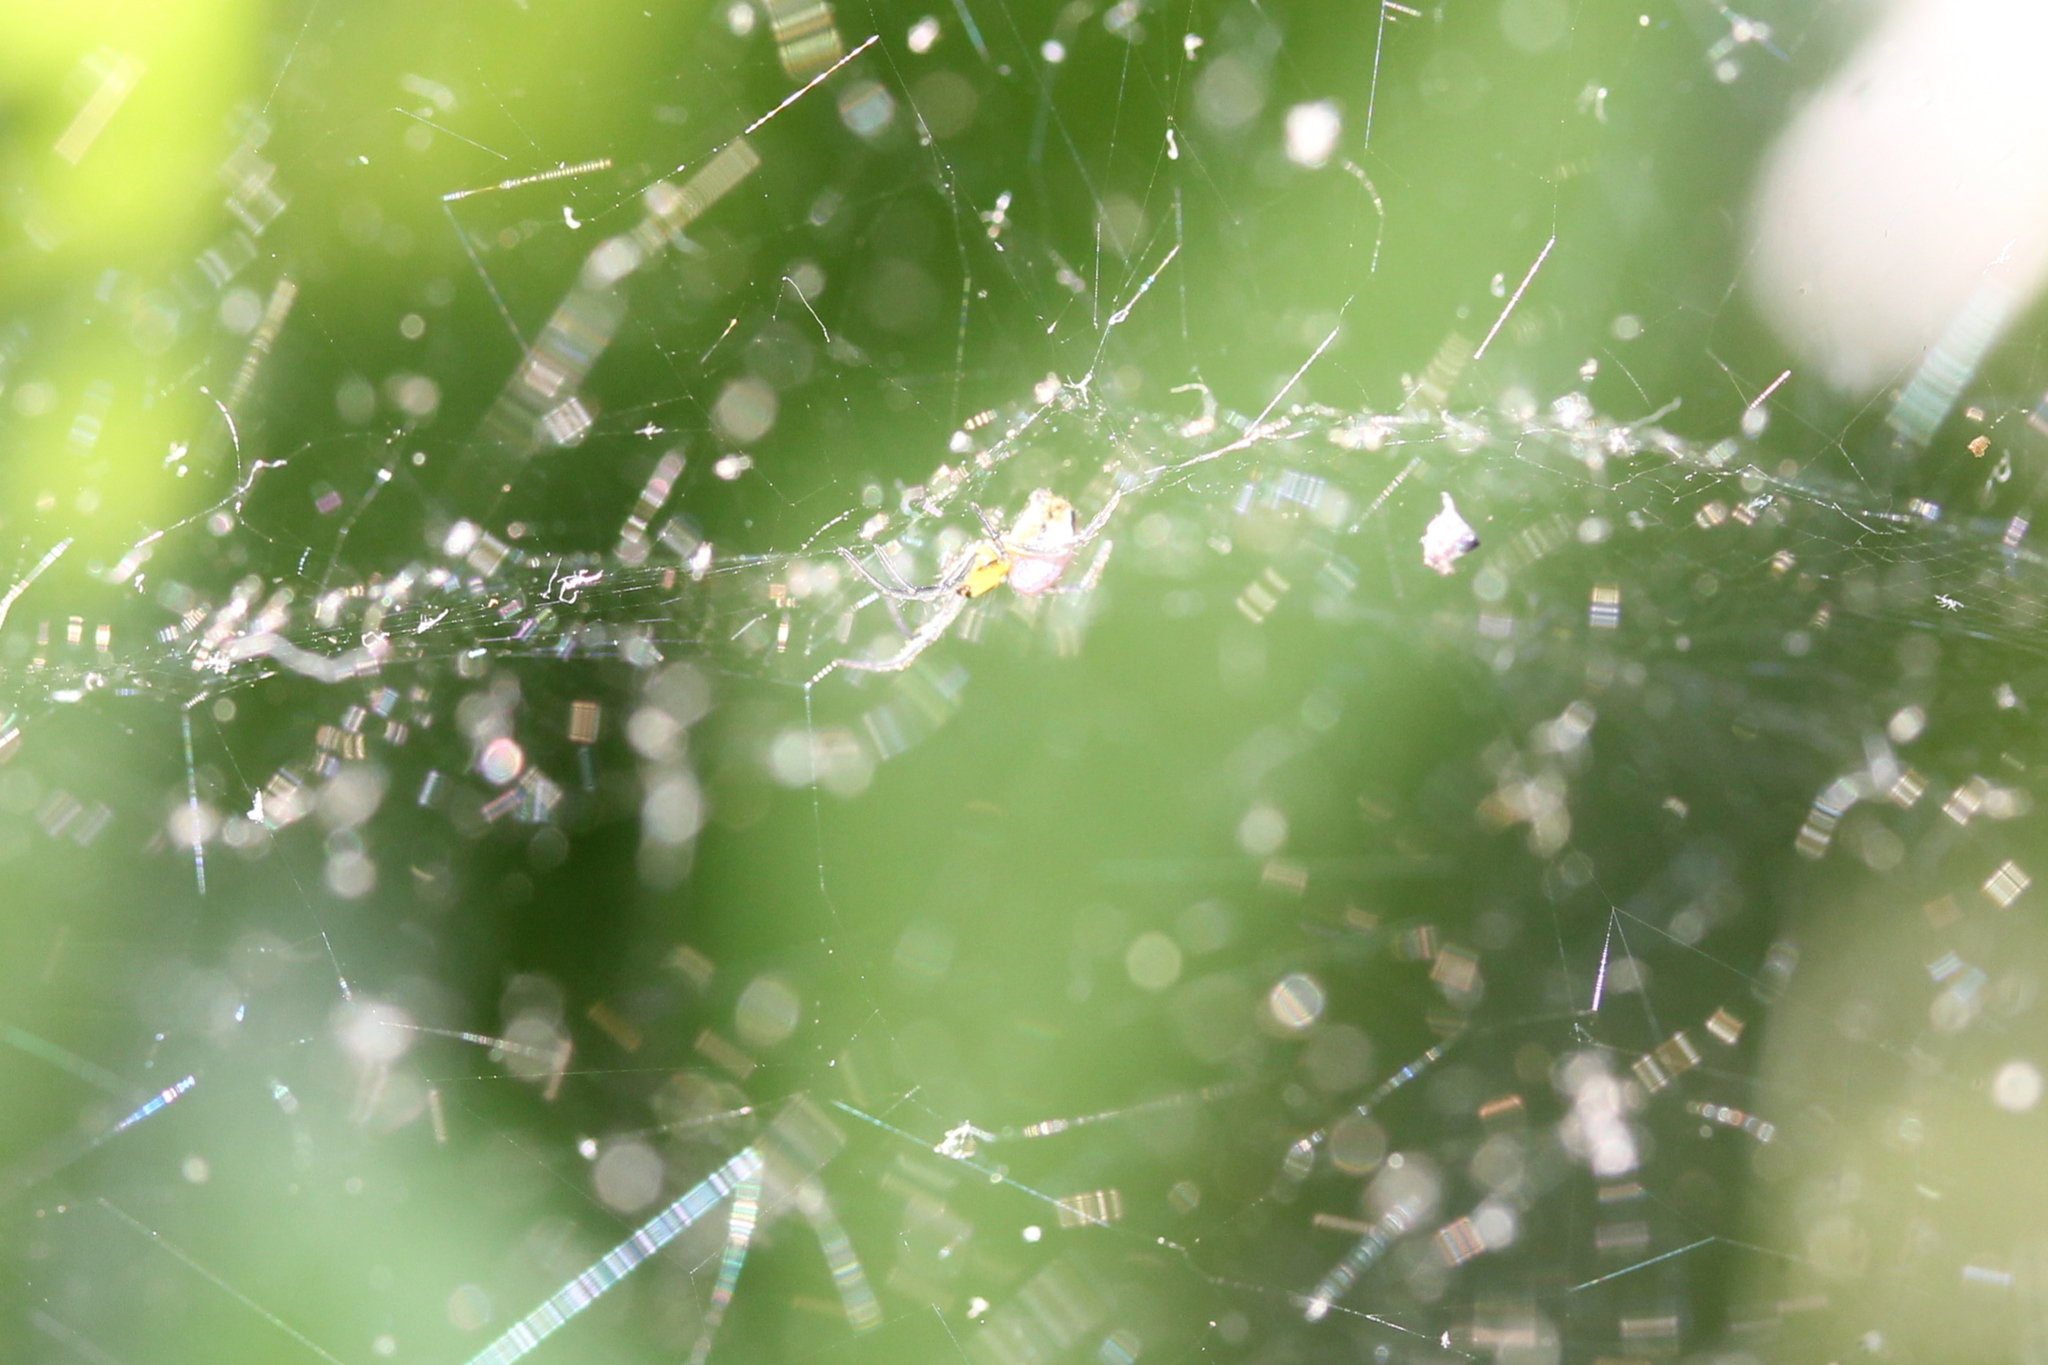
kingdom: Animalia
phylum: Arthropoda
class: Arachnida
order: Araneae
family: Araneidae
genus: Mecynogea
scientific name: Mecynogea lemniscata
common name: Orb weavers
